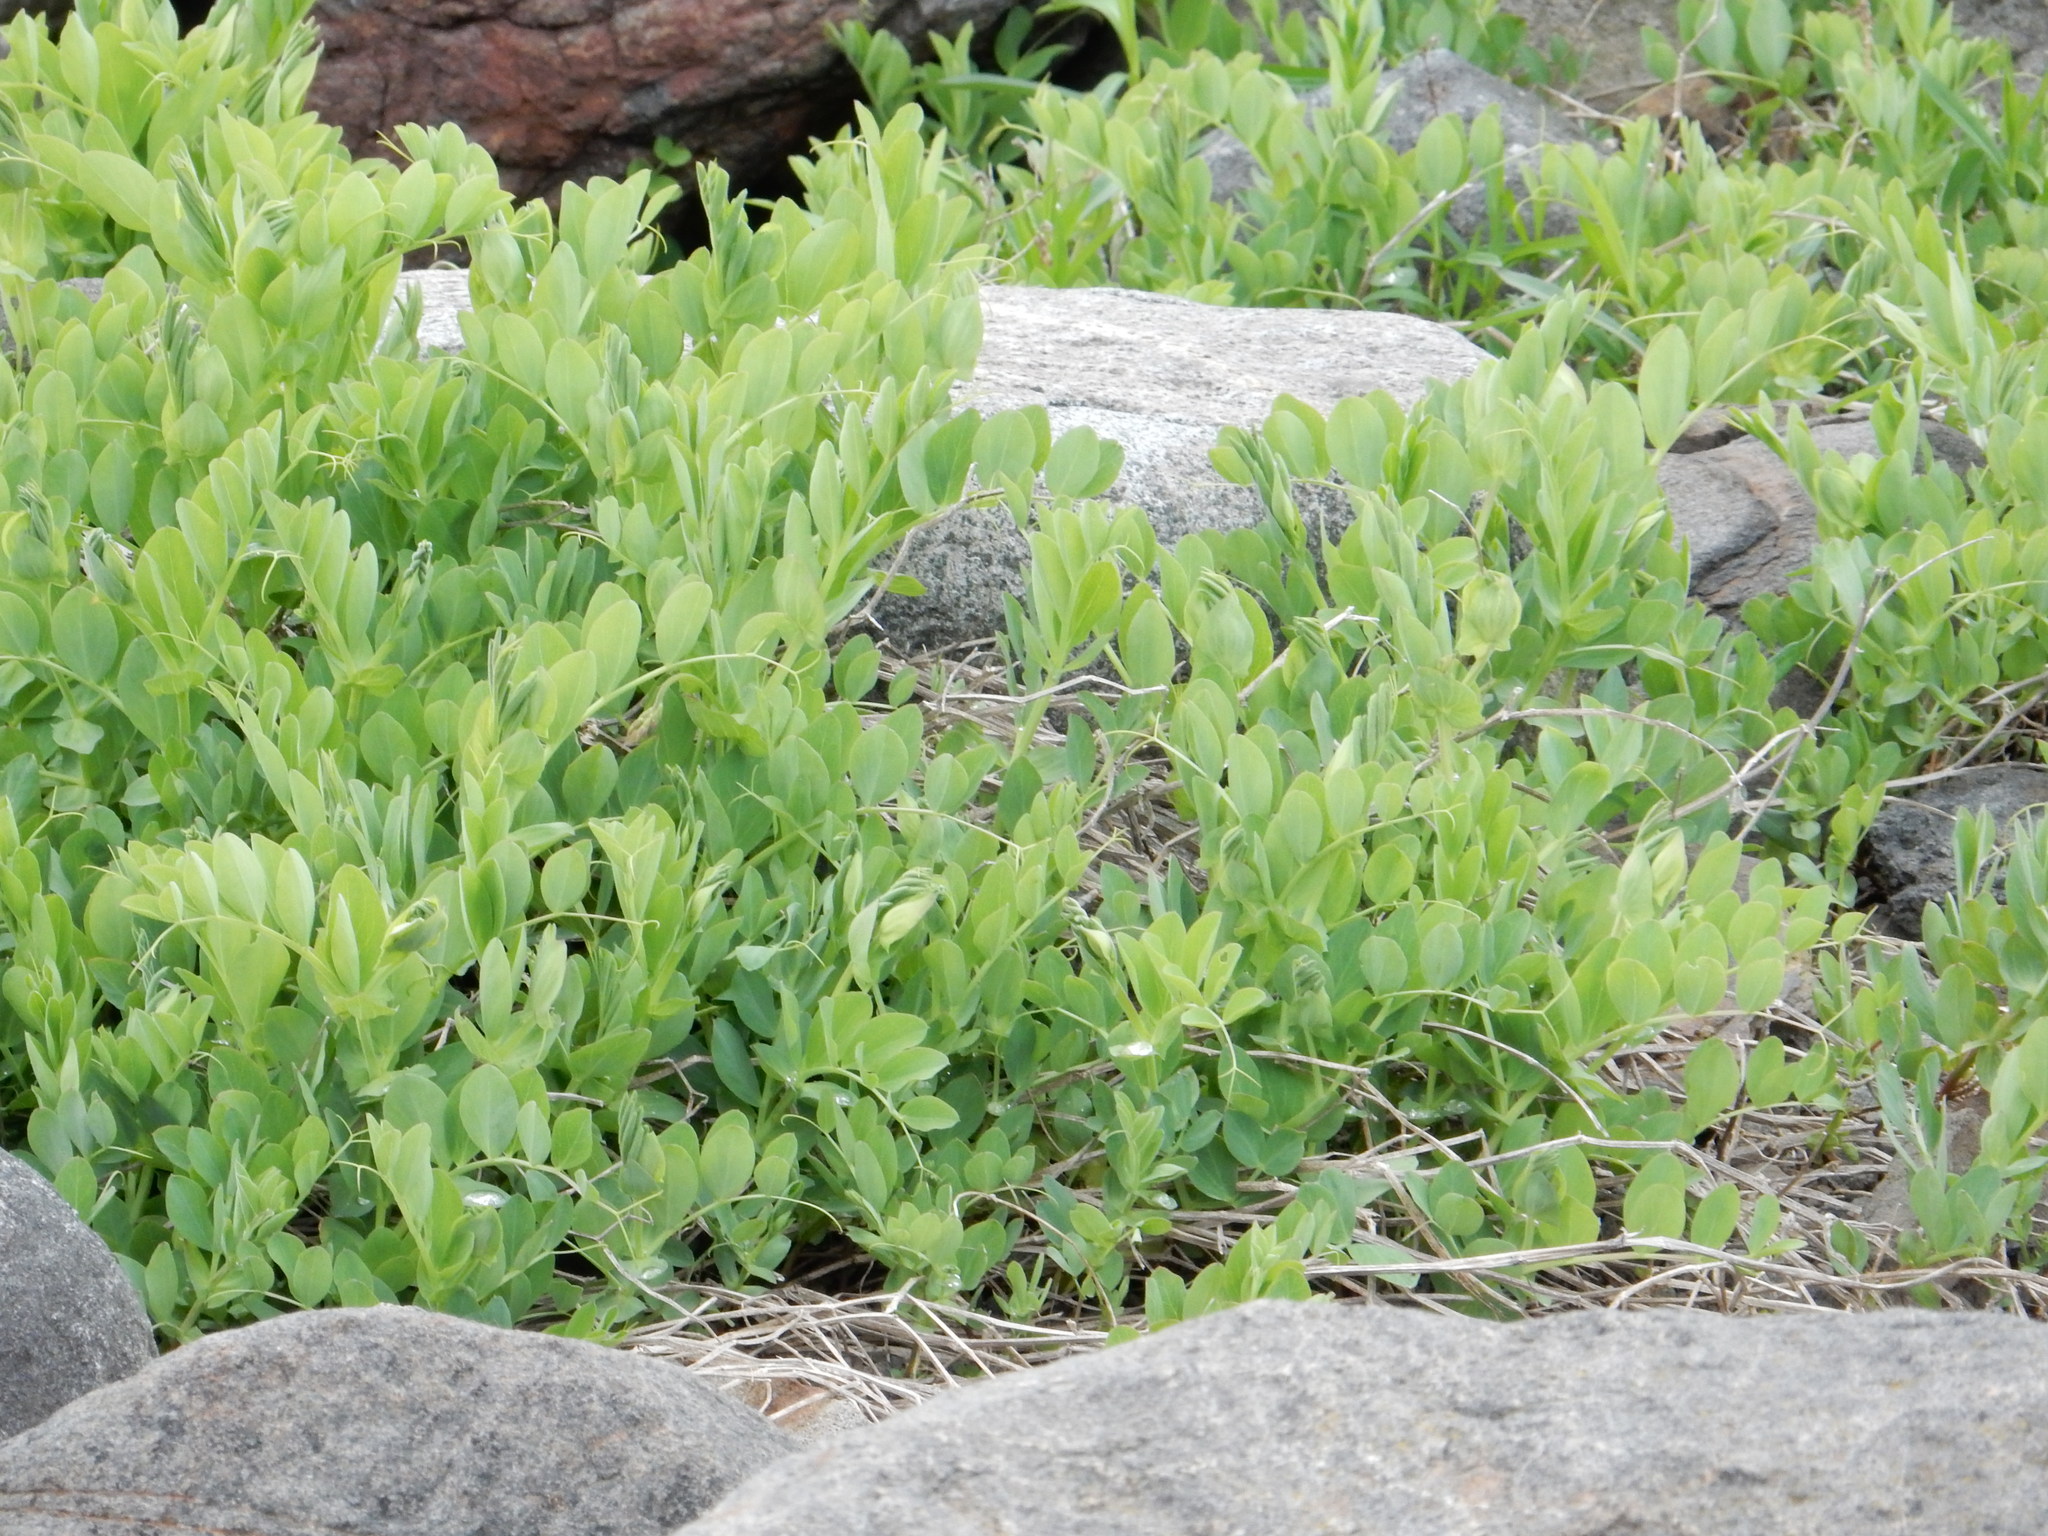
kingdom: Plantae
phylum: Tracheophyta
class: Magnoliopsida
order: Fabales
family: Fabaceae
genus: Lathyrus
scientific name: Lathyrus japonicus
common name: Sea pea
